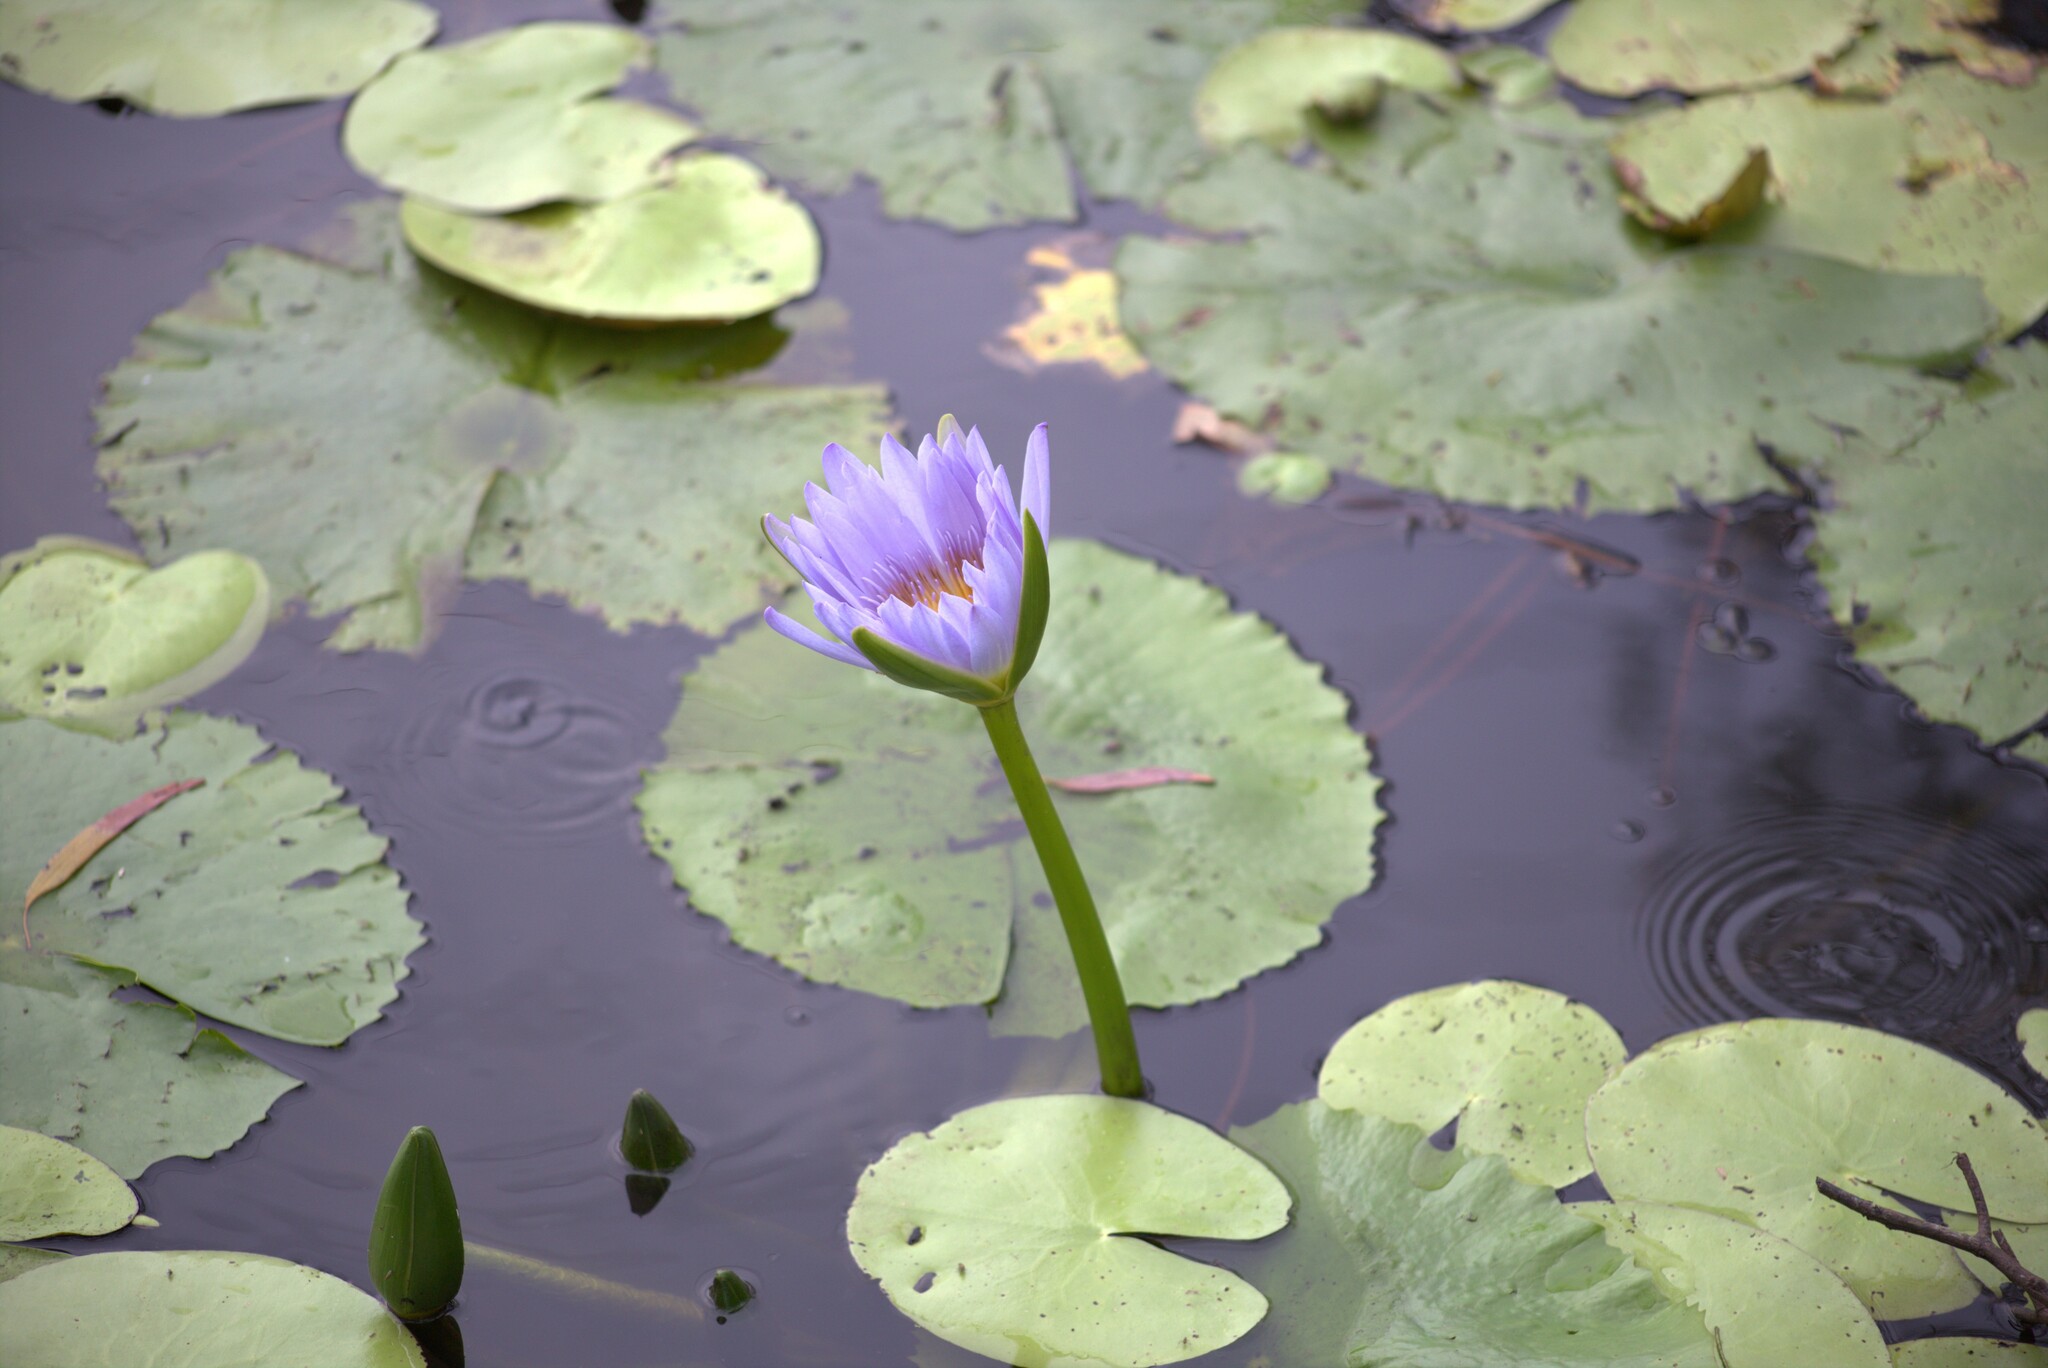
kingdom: Plantae
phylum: Tracheophyta
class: Magnoliopsida
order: Nymphaeales
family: Nymphaeaceae
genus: Nymphaea
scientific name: Nymphaea nouchali
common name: Blue lotus
